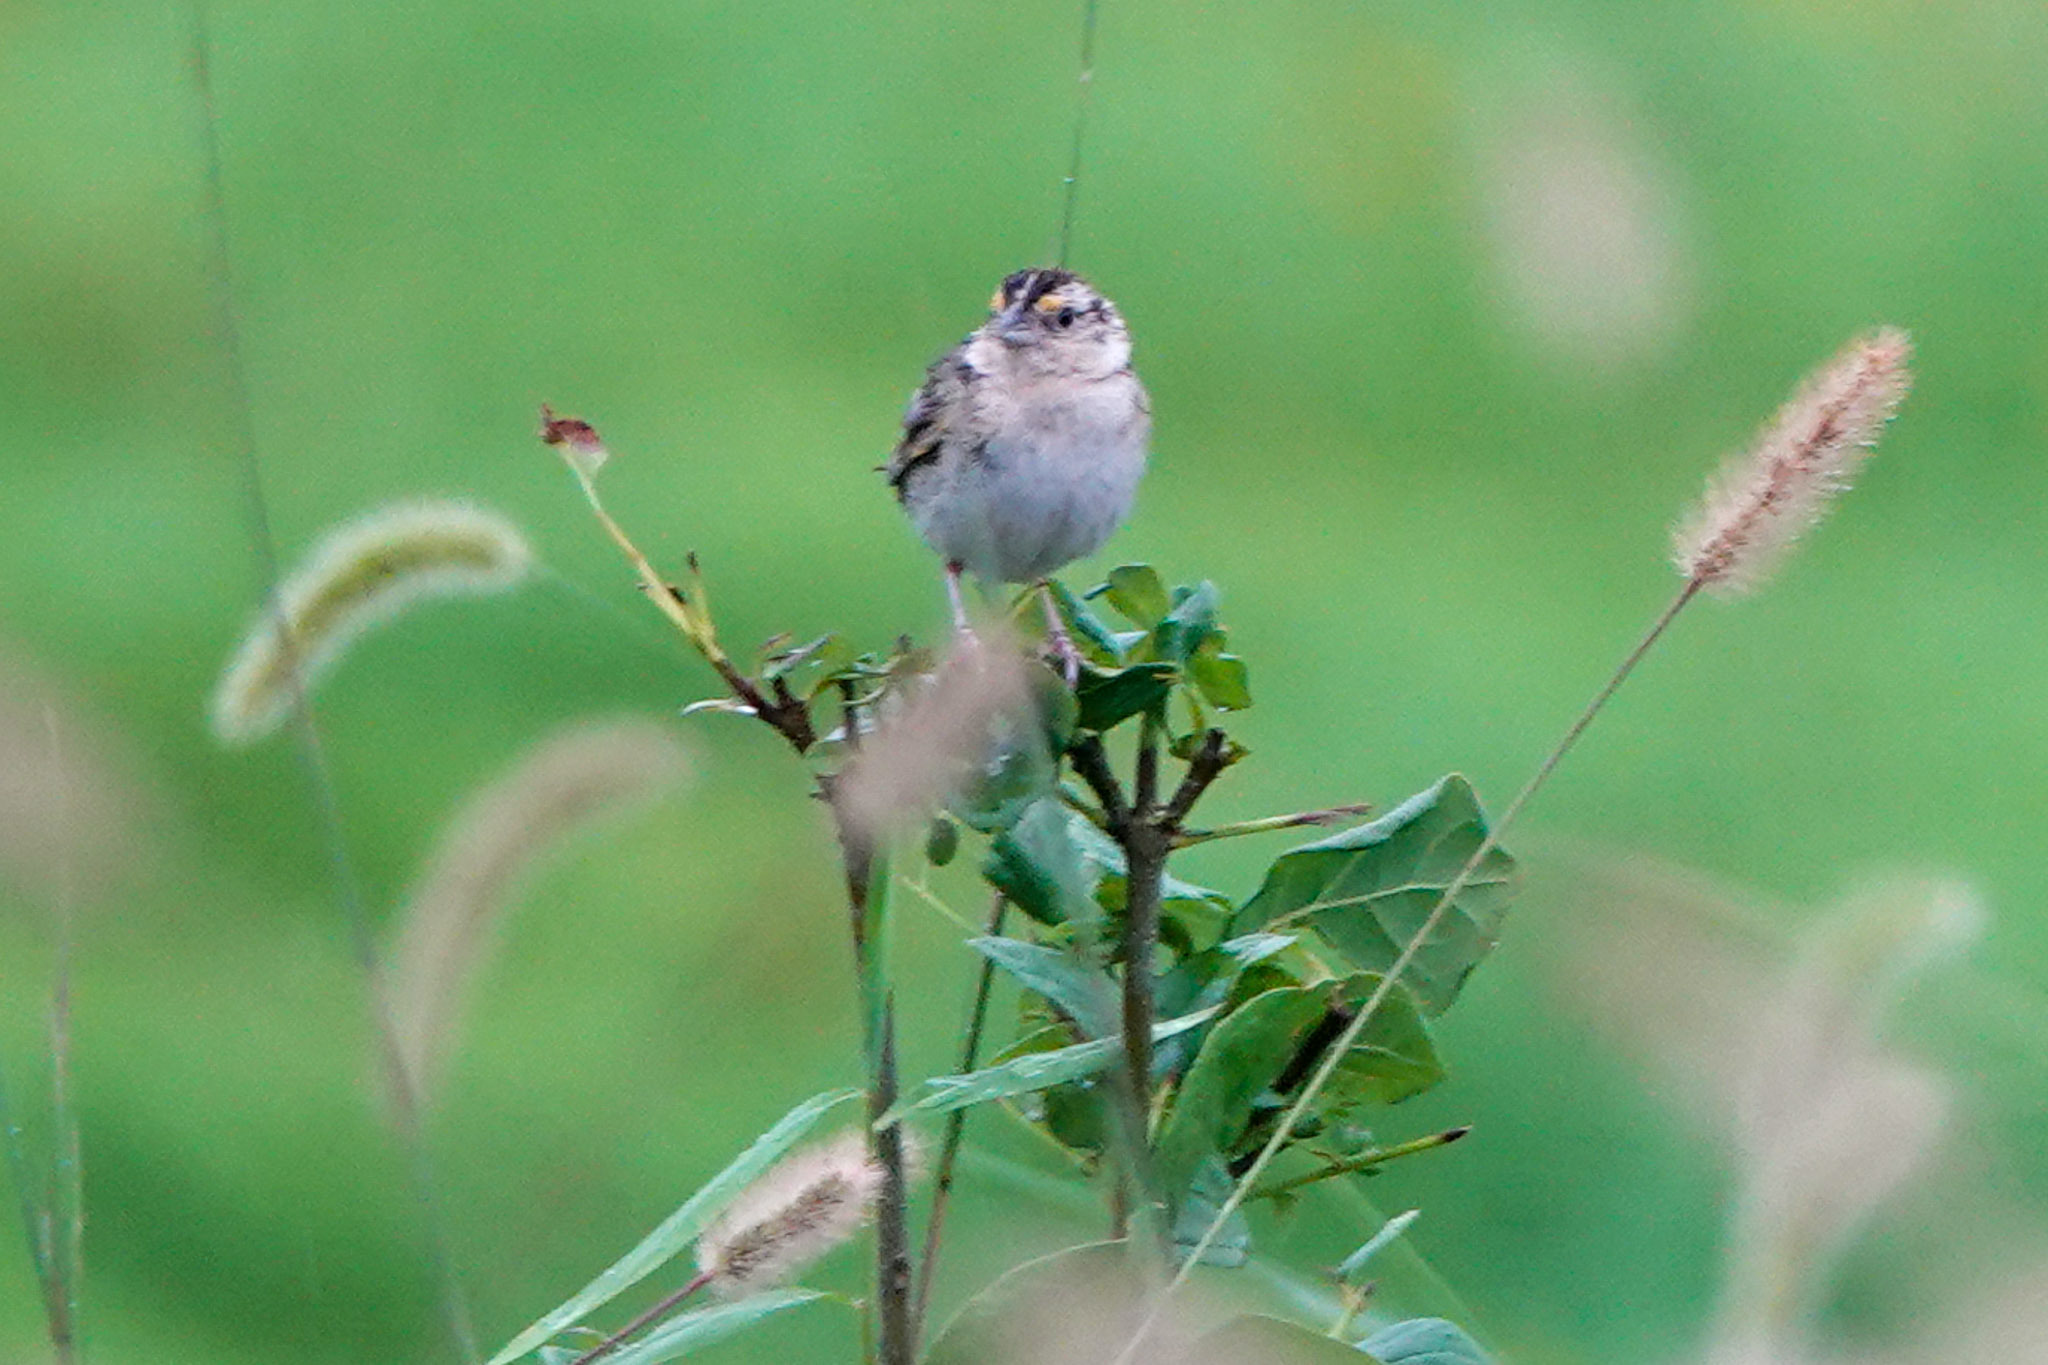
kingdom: Animalia
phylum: Chordata
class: Aves
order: Passeriformes
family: Passerellidae
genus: Ammodramus
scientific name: Ammodramus savannarum
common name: Grasshopper sparrow
